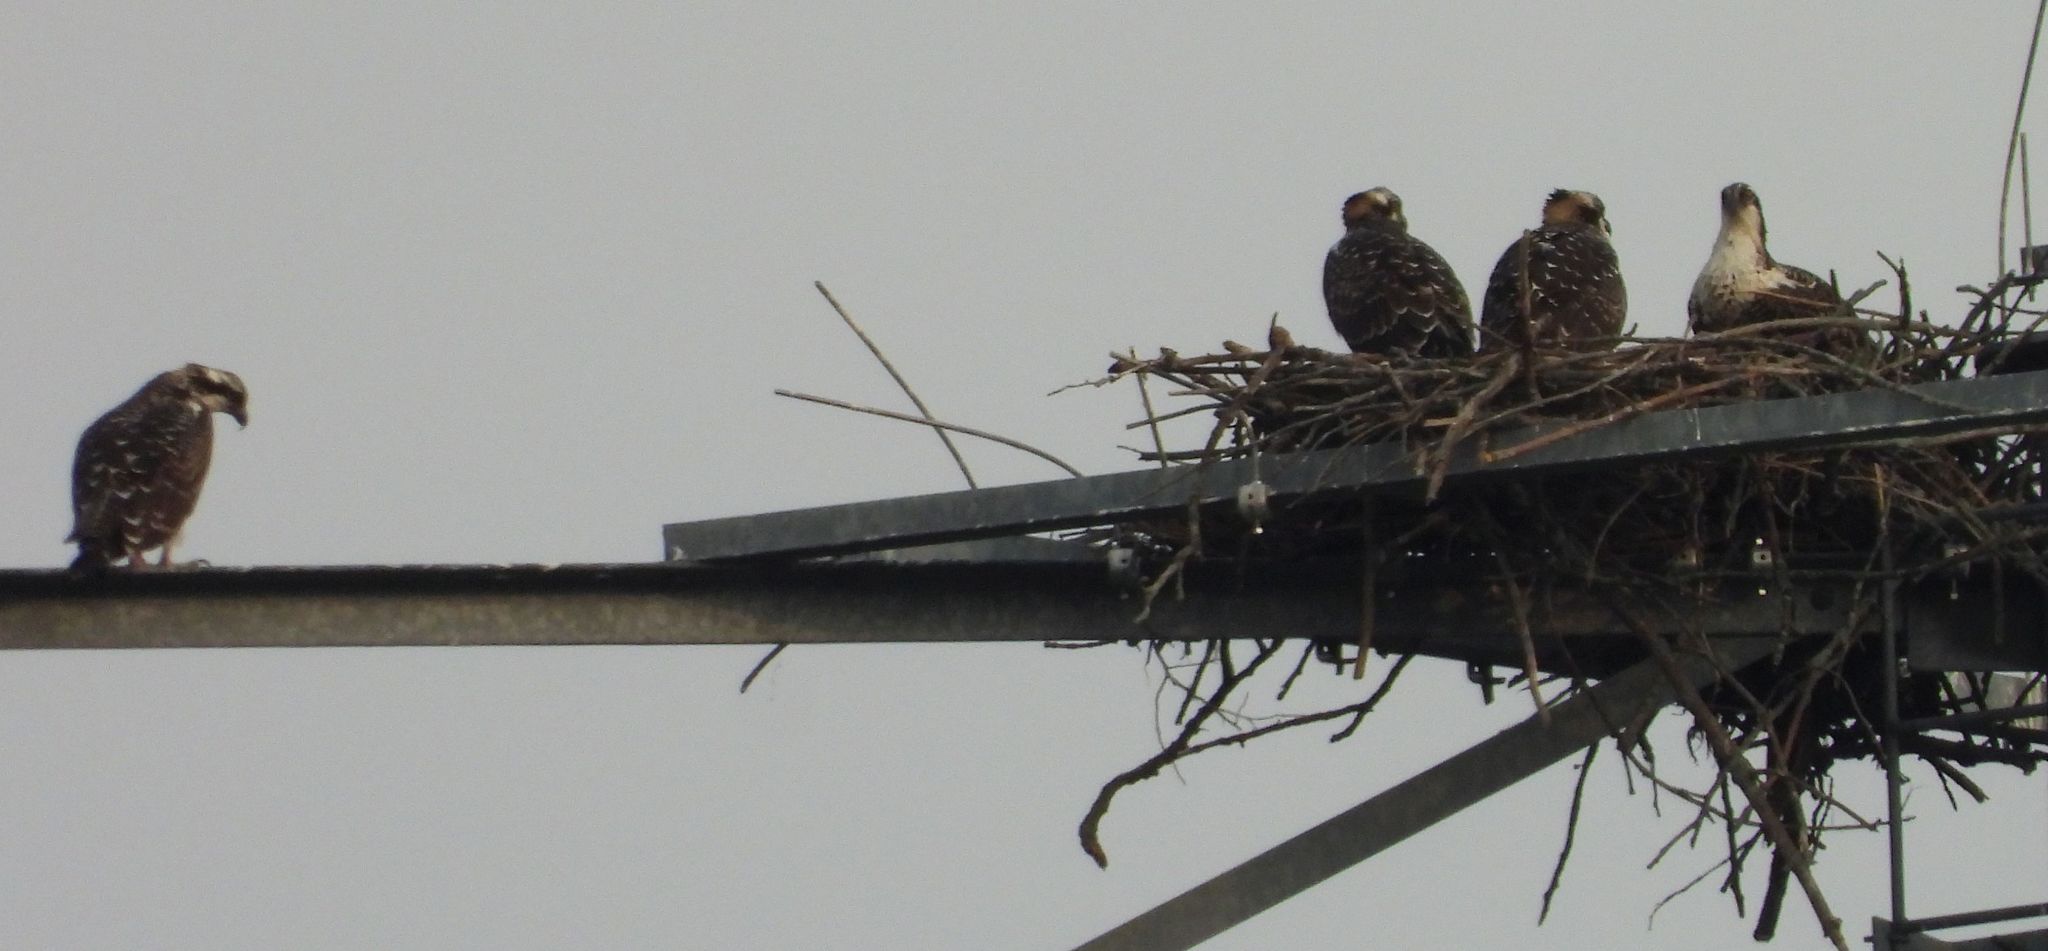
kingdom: Animalia
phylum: Chordata
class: Aves
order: Accipitriformes
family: Pandionidae
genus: Pandion
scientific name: Pandion haliaetus
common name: Osprey
